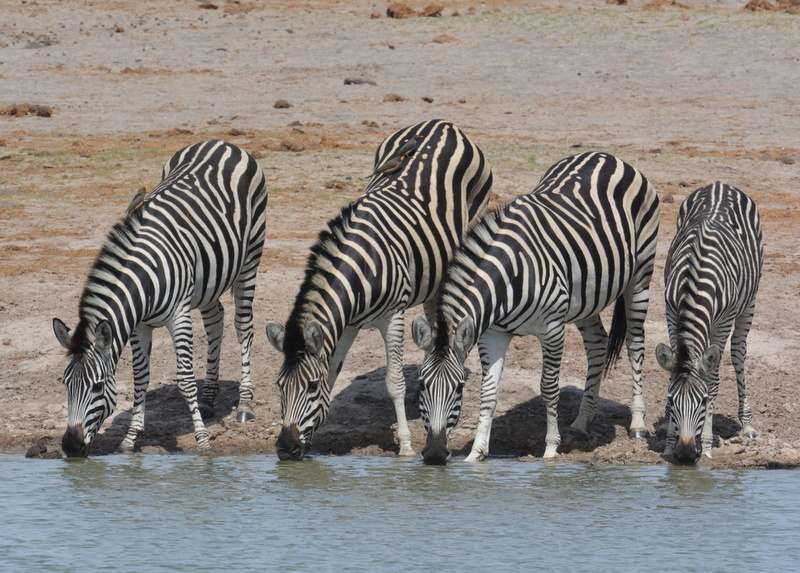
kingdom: Animalia
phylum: Chordata
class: Mammalia
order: Perissodactyla
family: Equidae
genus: Equus
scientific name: Equus quagga
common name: Plains zebra
